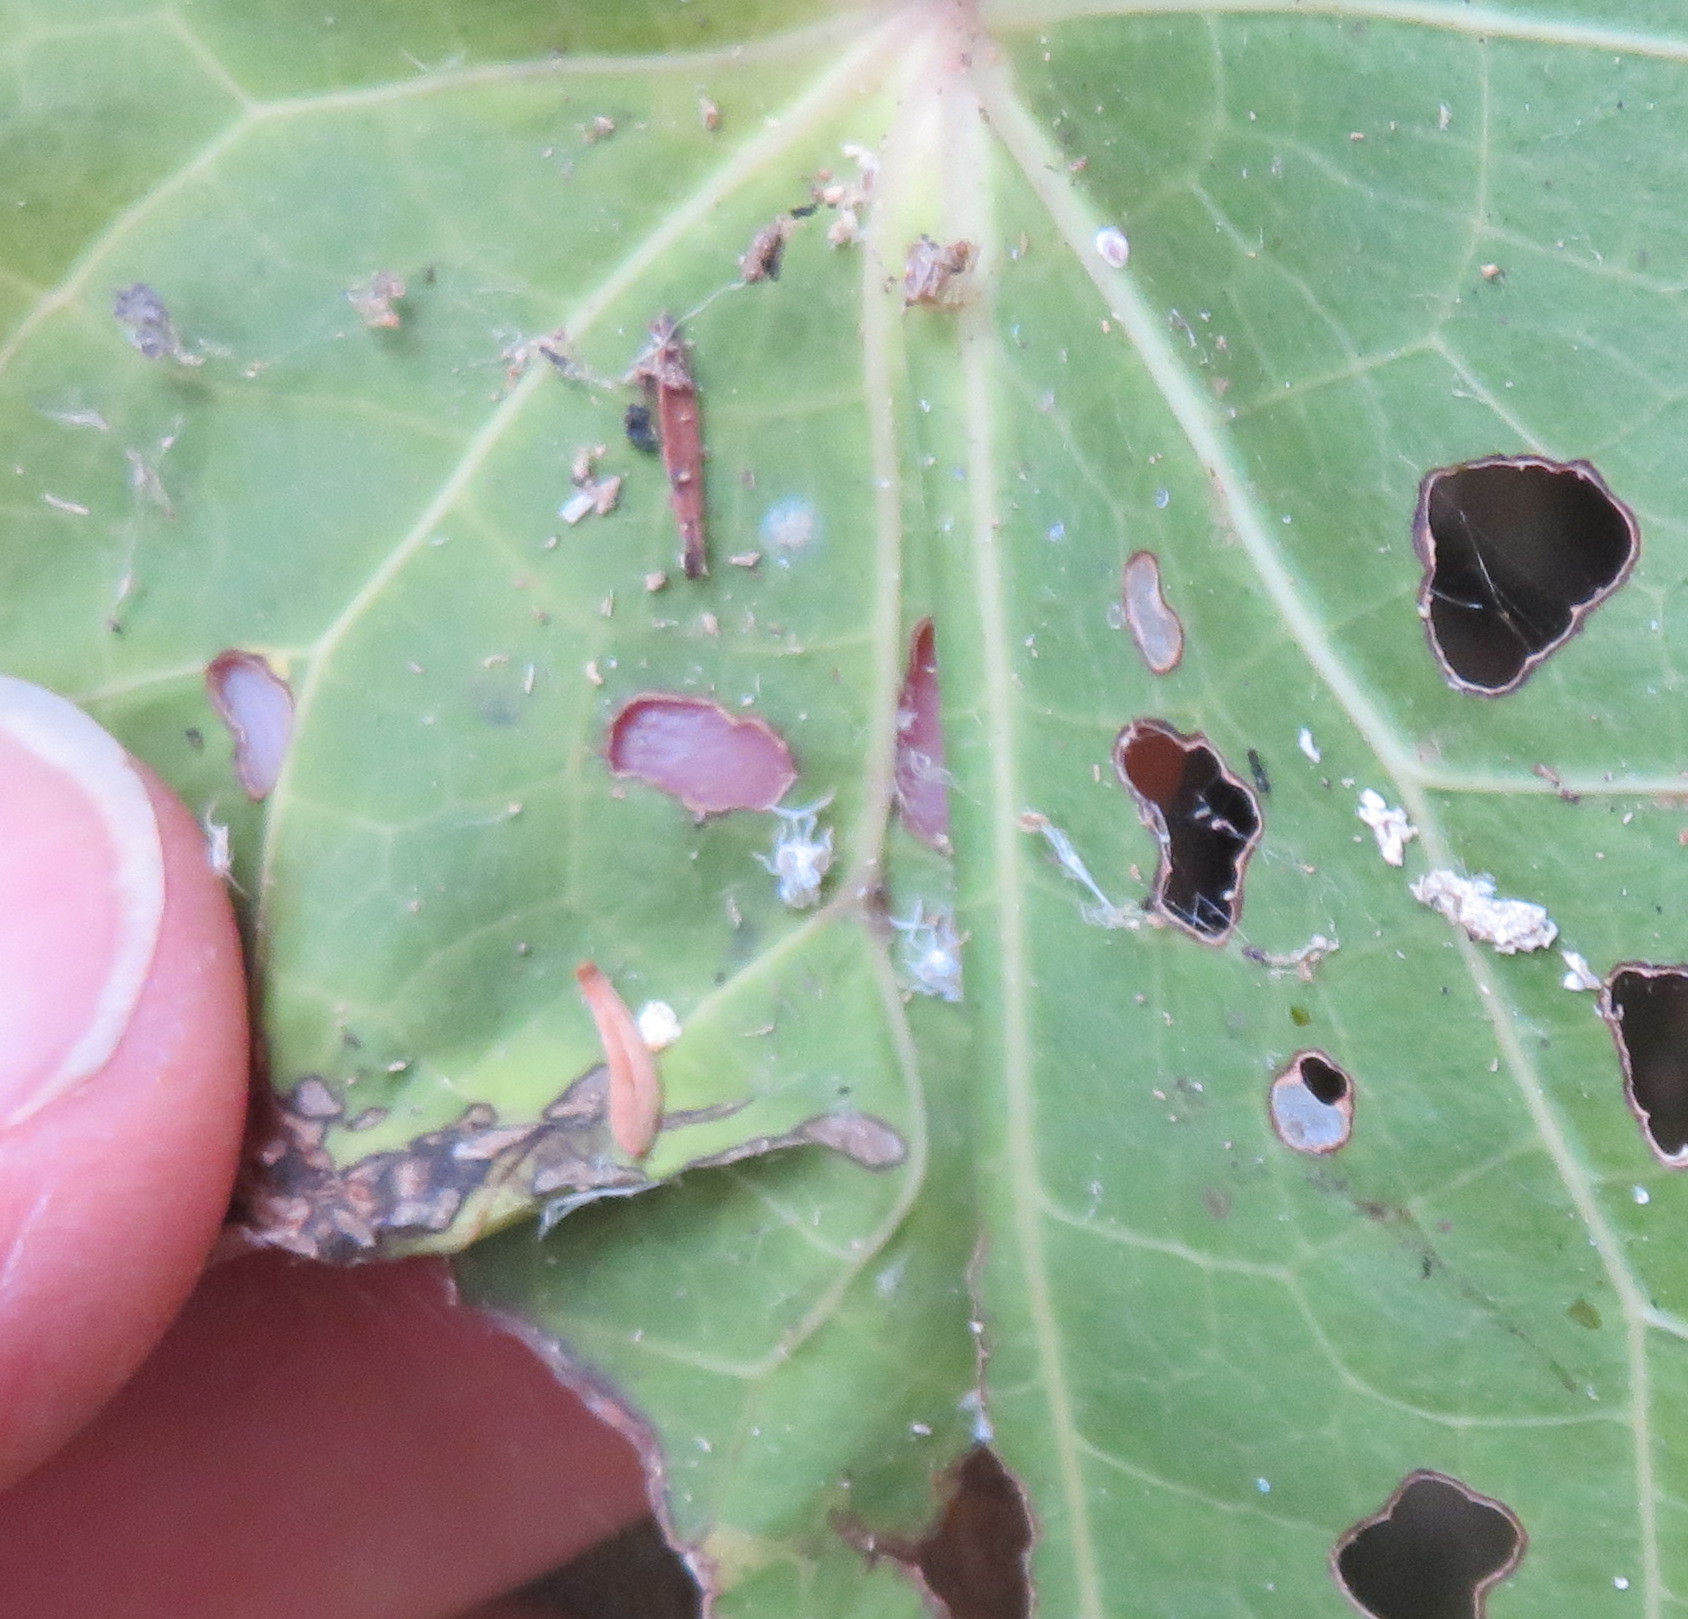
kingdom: Animalia
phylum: Arthropoda
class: Insecta
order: Hemiptera
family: Ricaniidae
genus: Scolypopa
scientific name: Scolypopa australis
